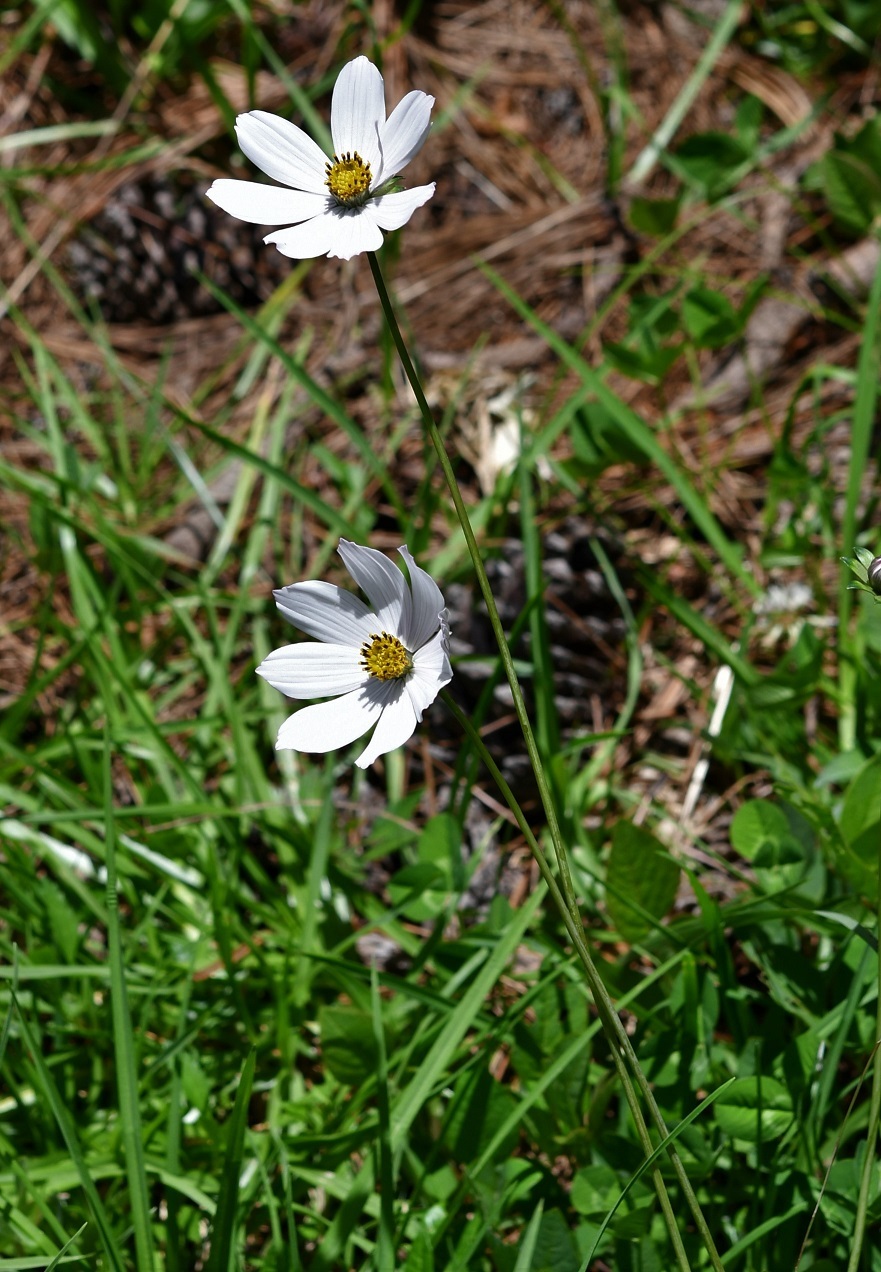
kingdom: Plantae
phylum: Tracheophyta
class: Magnoliopsida
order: Asterales
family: Asteraceae
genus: Cosmos
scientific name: Cosmos diversifolius
